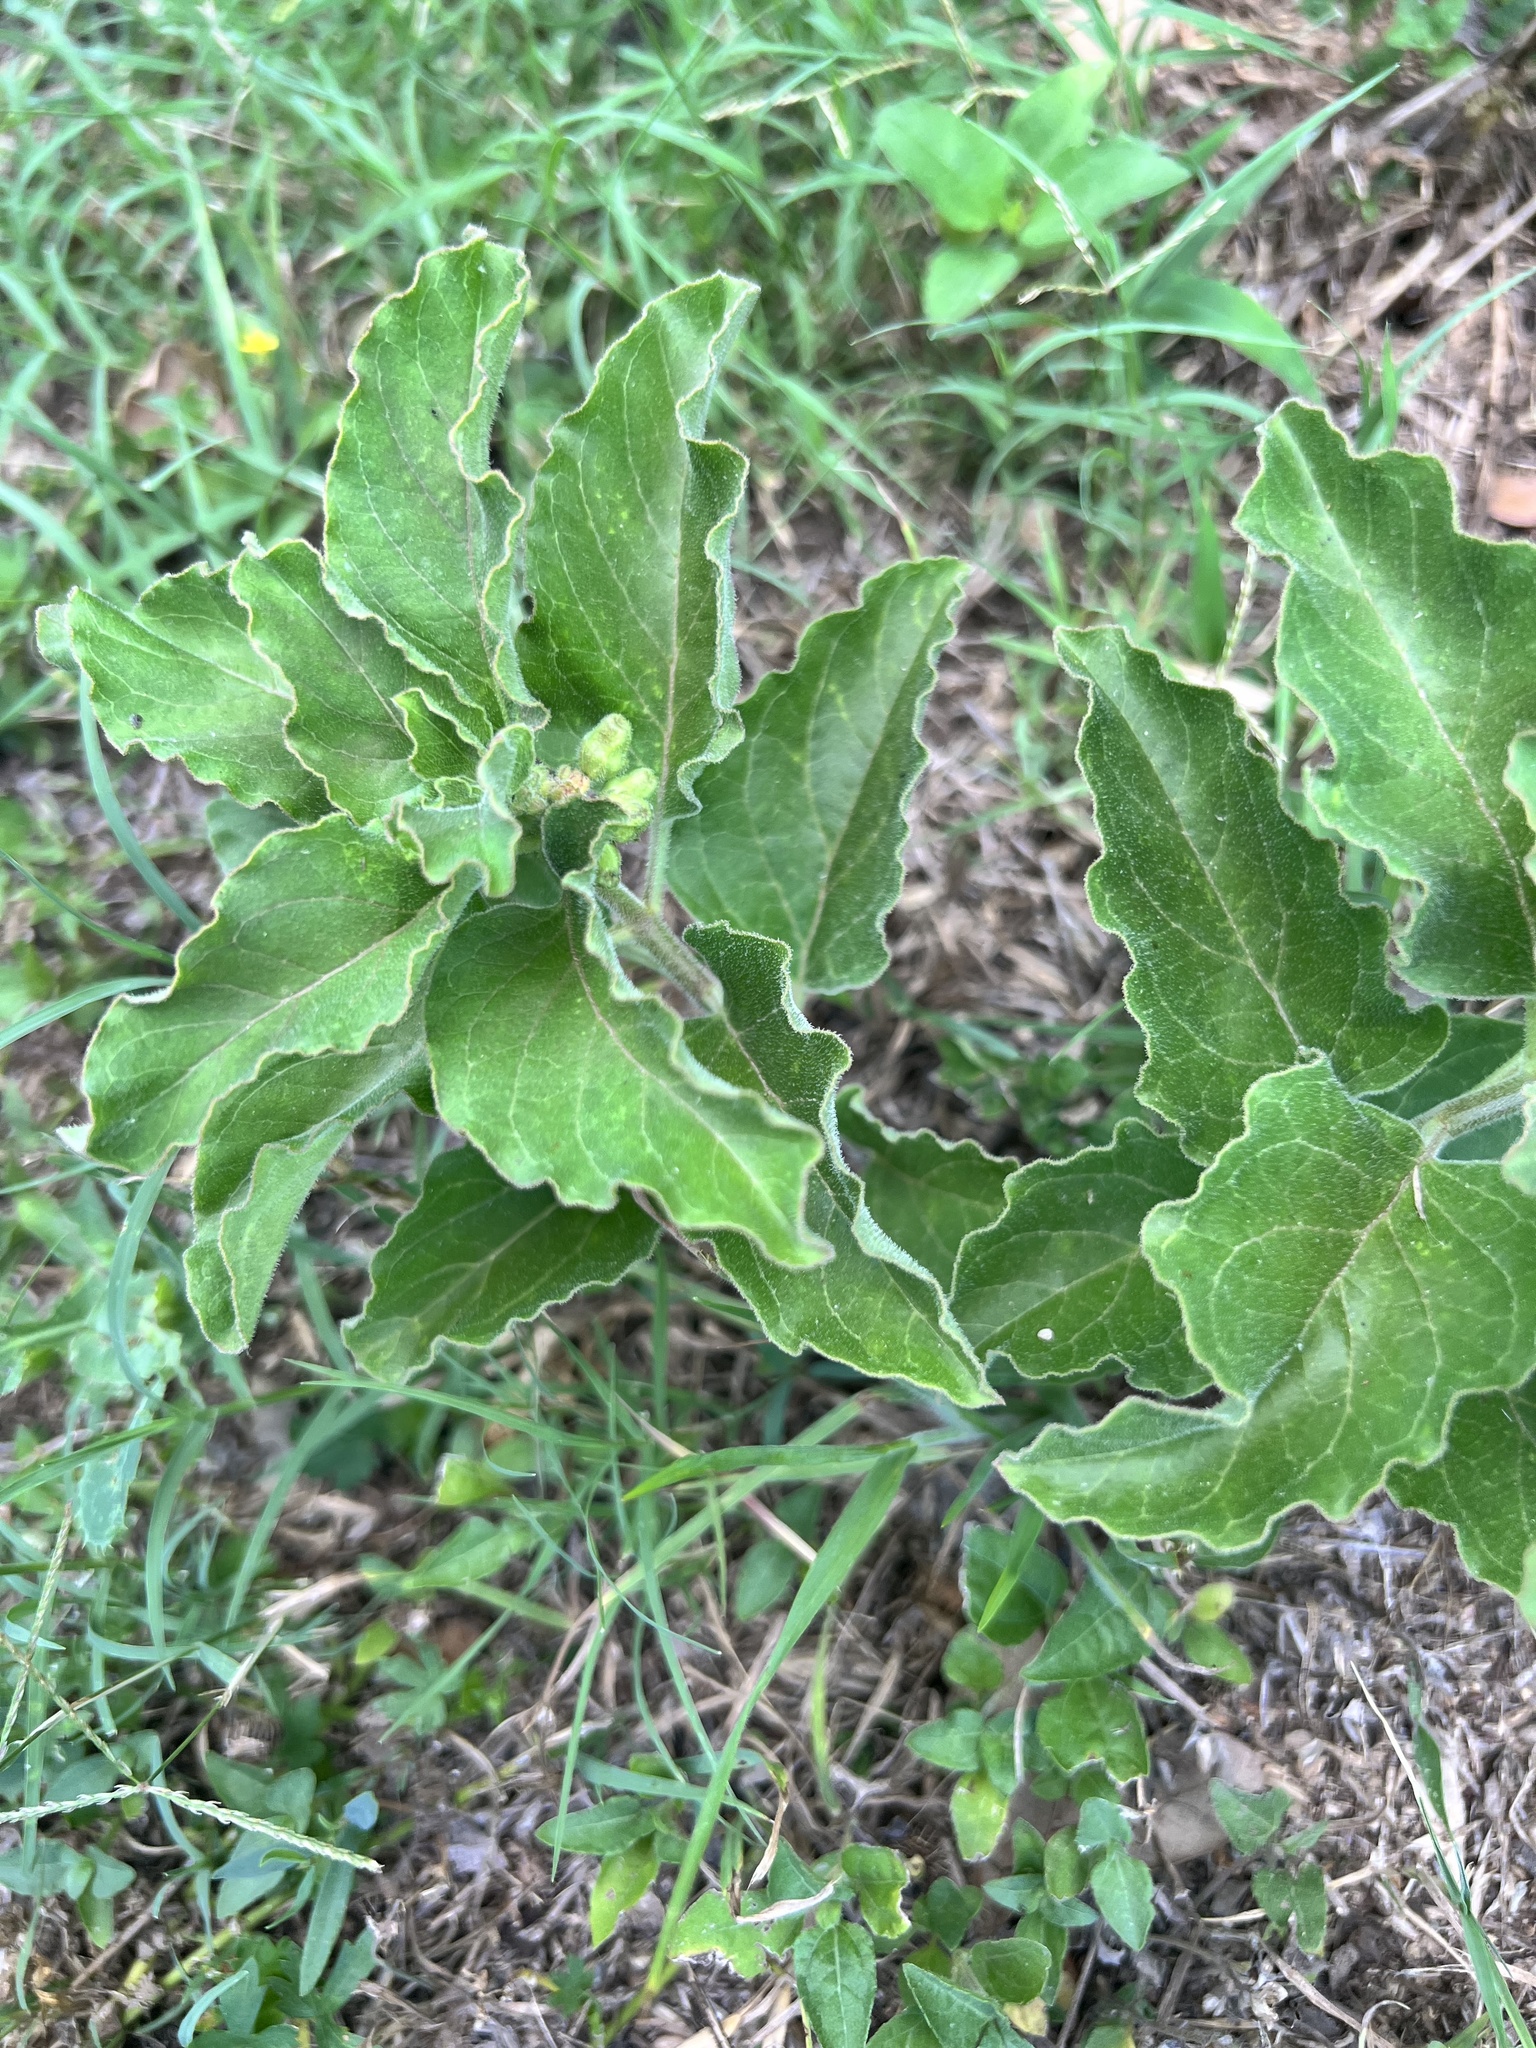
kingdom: Plantae
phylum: Tracheophyta
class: Magnoliopsida
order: Gentianales
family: Apocynaceae
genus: Asclepias
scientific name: Asclepias oenotheroides
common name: Zizotes milkweed
